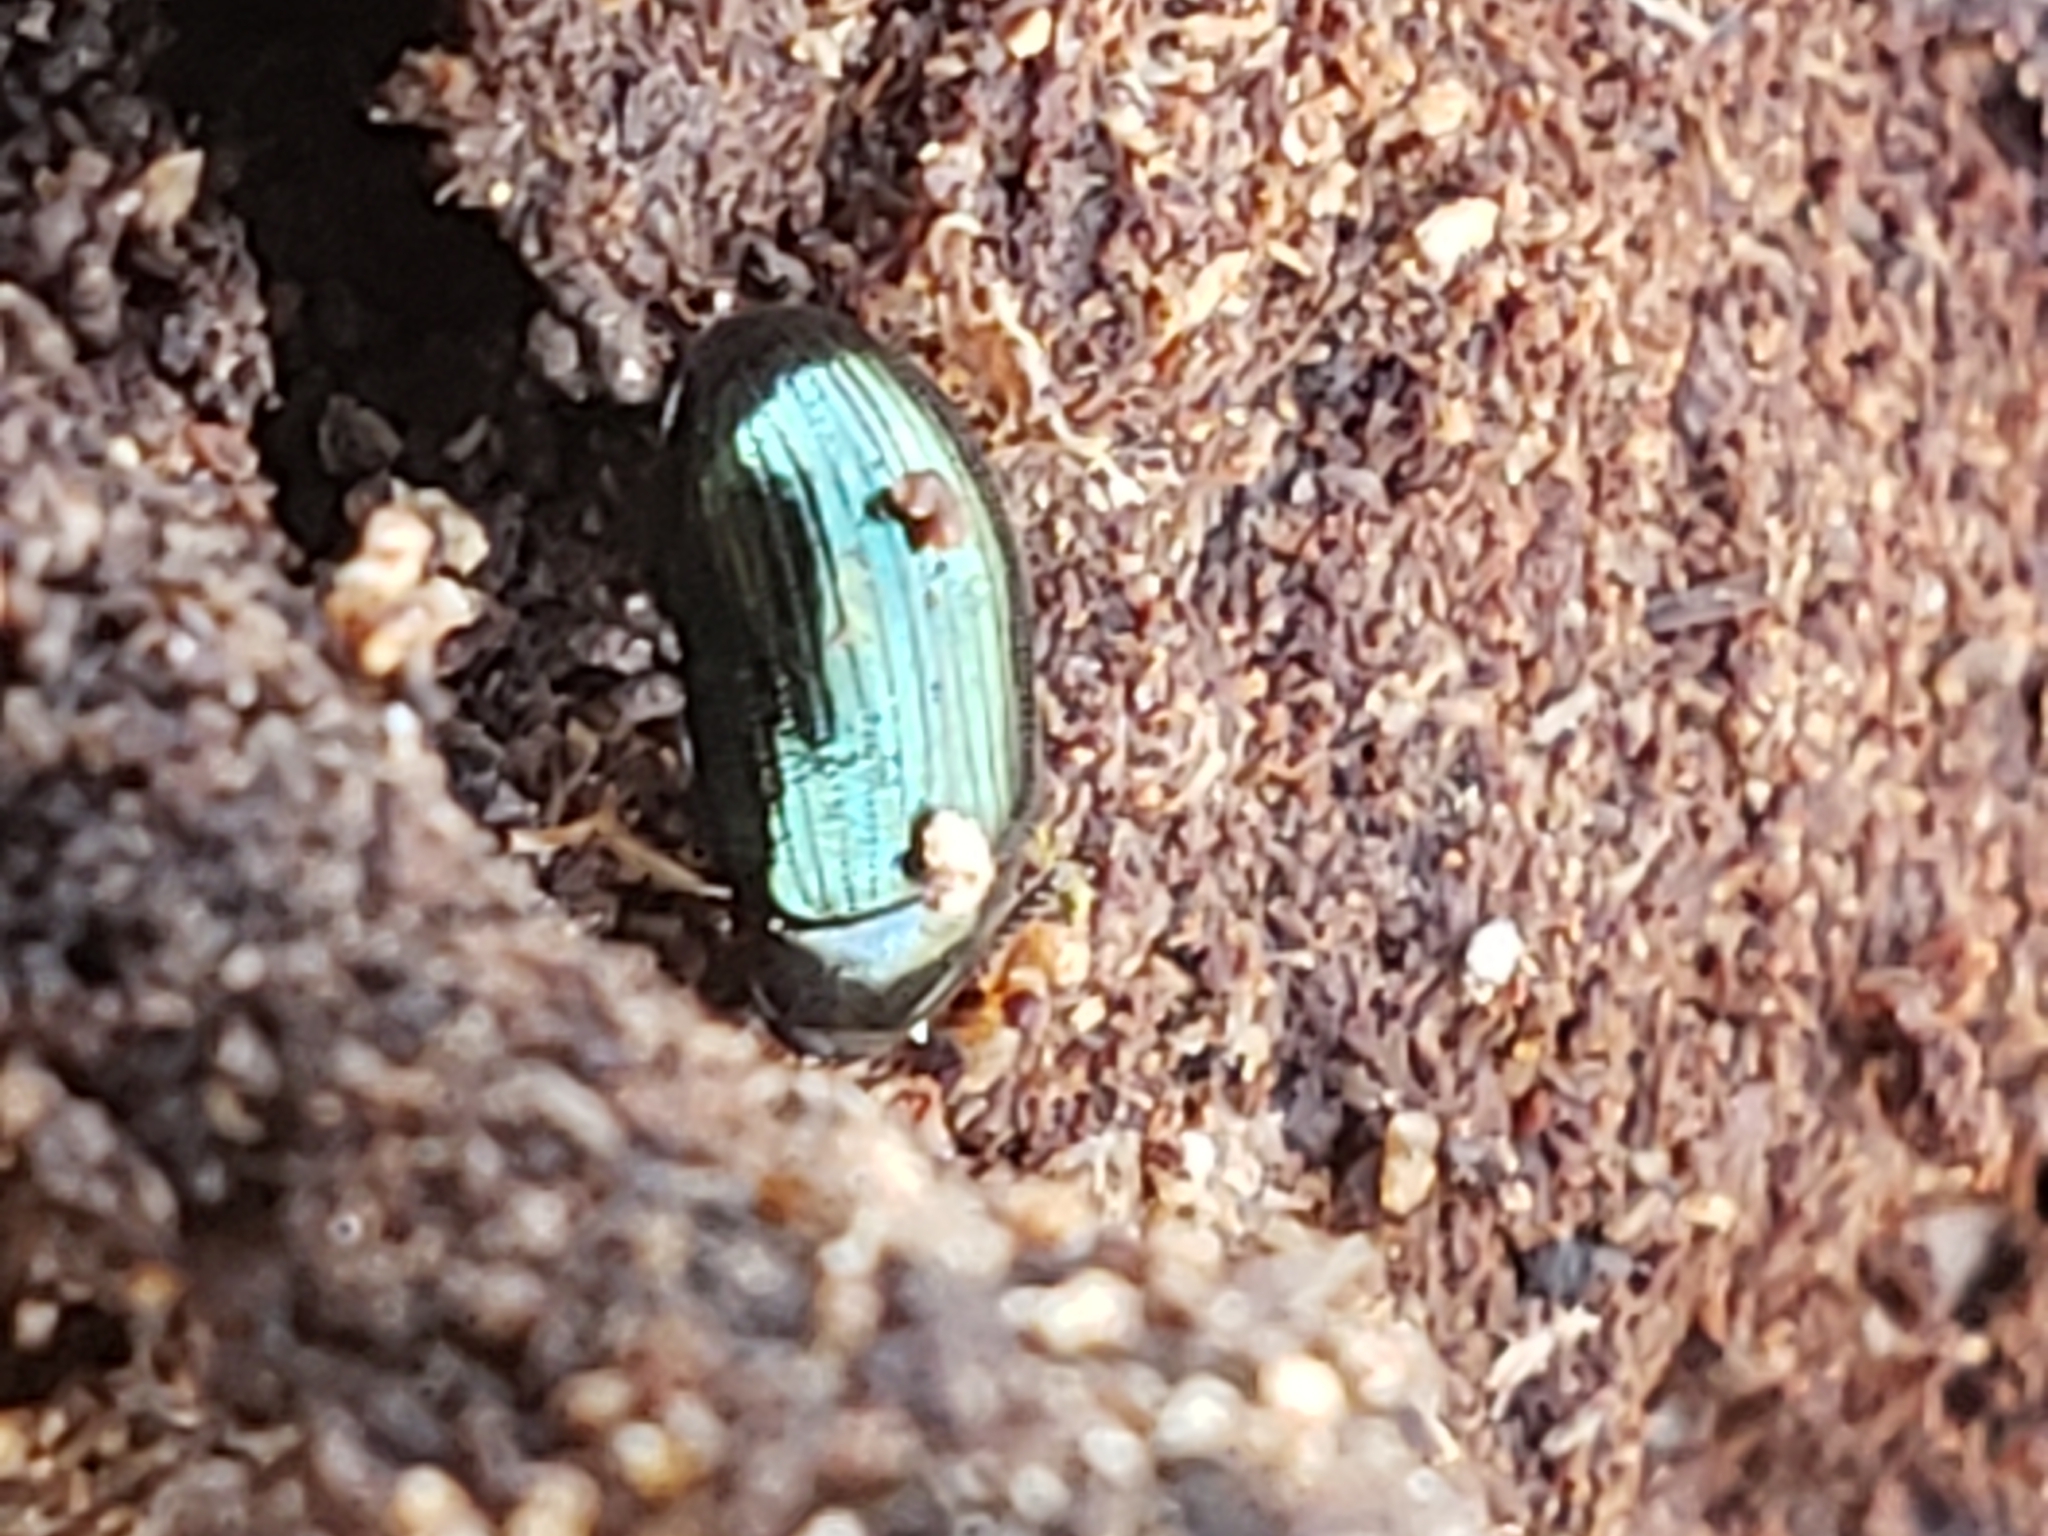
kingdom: Animalia
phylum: Arthropoda
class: Insecta
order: Coleoptera
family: Tenebrionidae
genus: Neomida
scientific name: Neomida bicornis
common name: Two-horned darkling beetle
